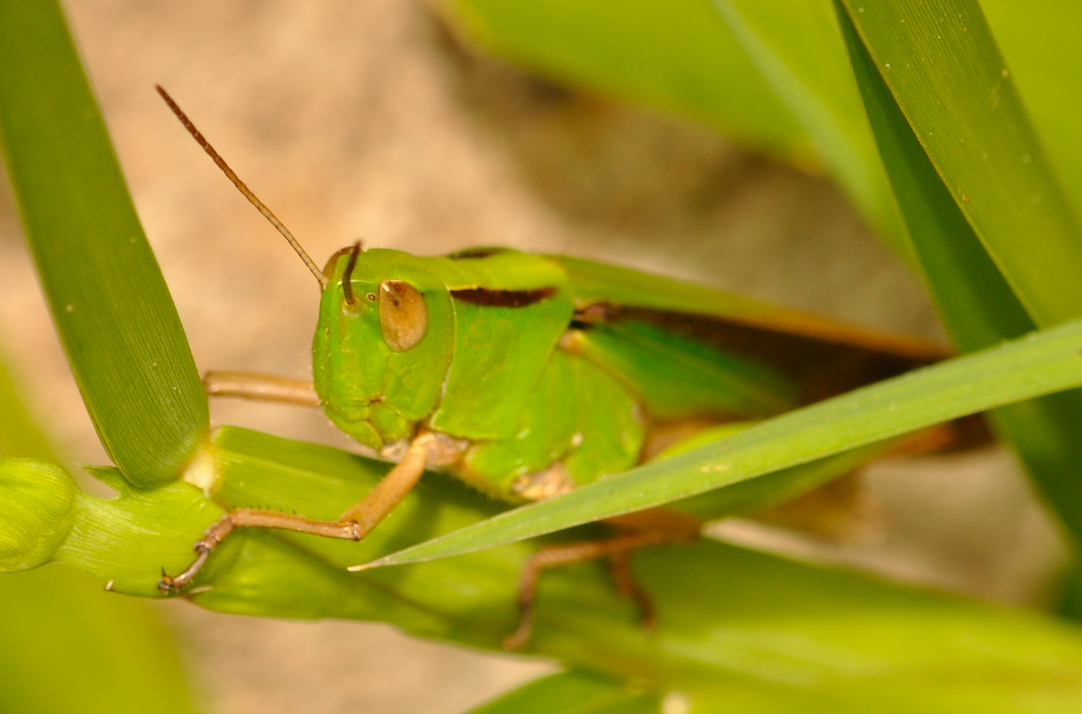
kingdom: Animalia
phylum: Arthropoda
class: Insecta
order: Orthoptera
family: Acrididae
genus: Paracinema
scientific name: Paracinema tricolor
